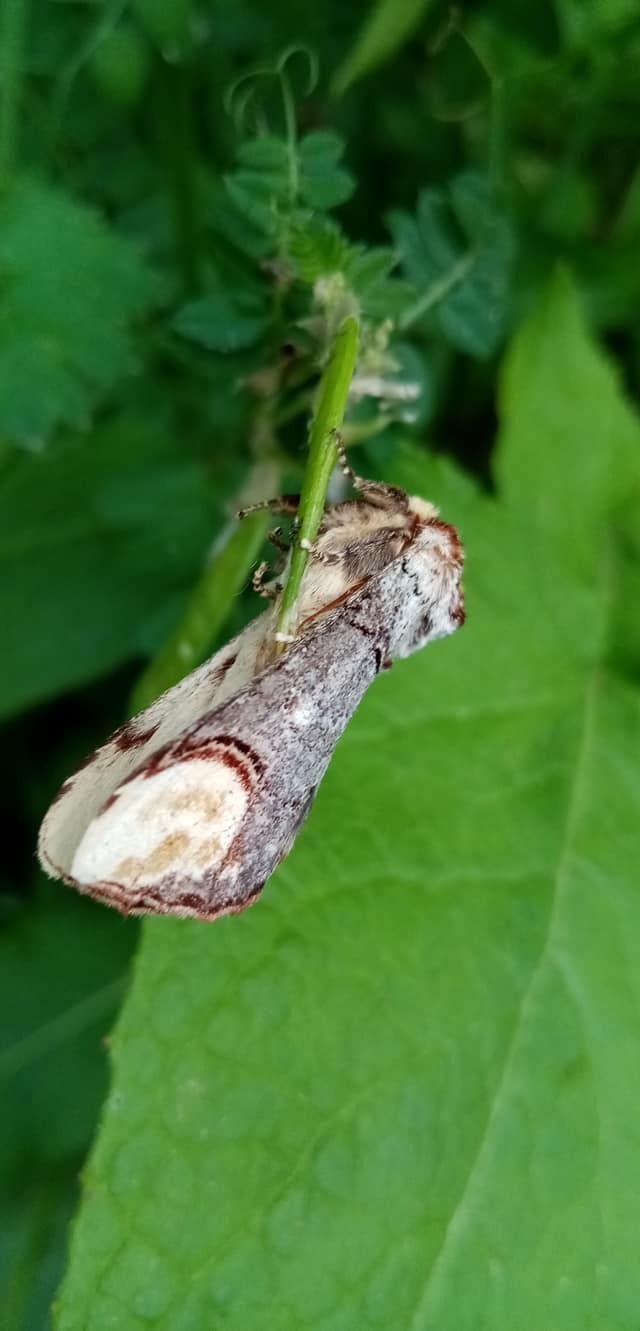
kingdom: Animalia
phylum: Arthropoda
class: Insecta
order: Lepidoptera
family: Notodontidae
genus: Phalera
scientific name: Phalera bucephala
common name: Buff-tip
